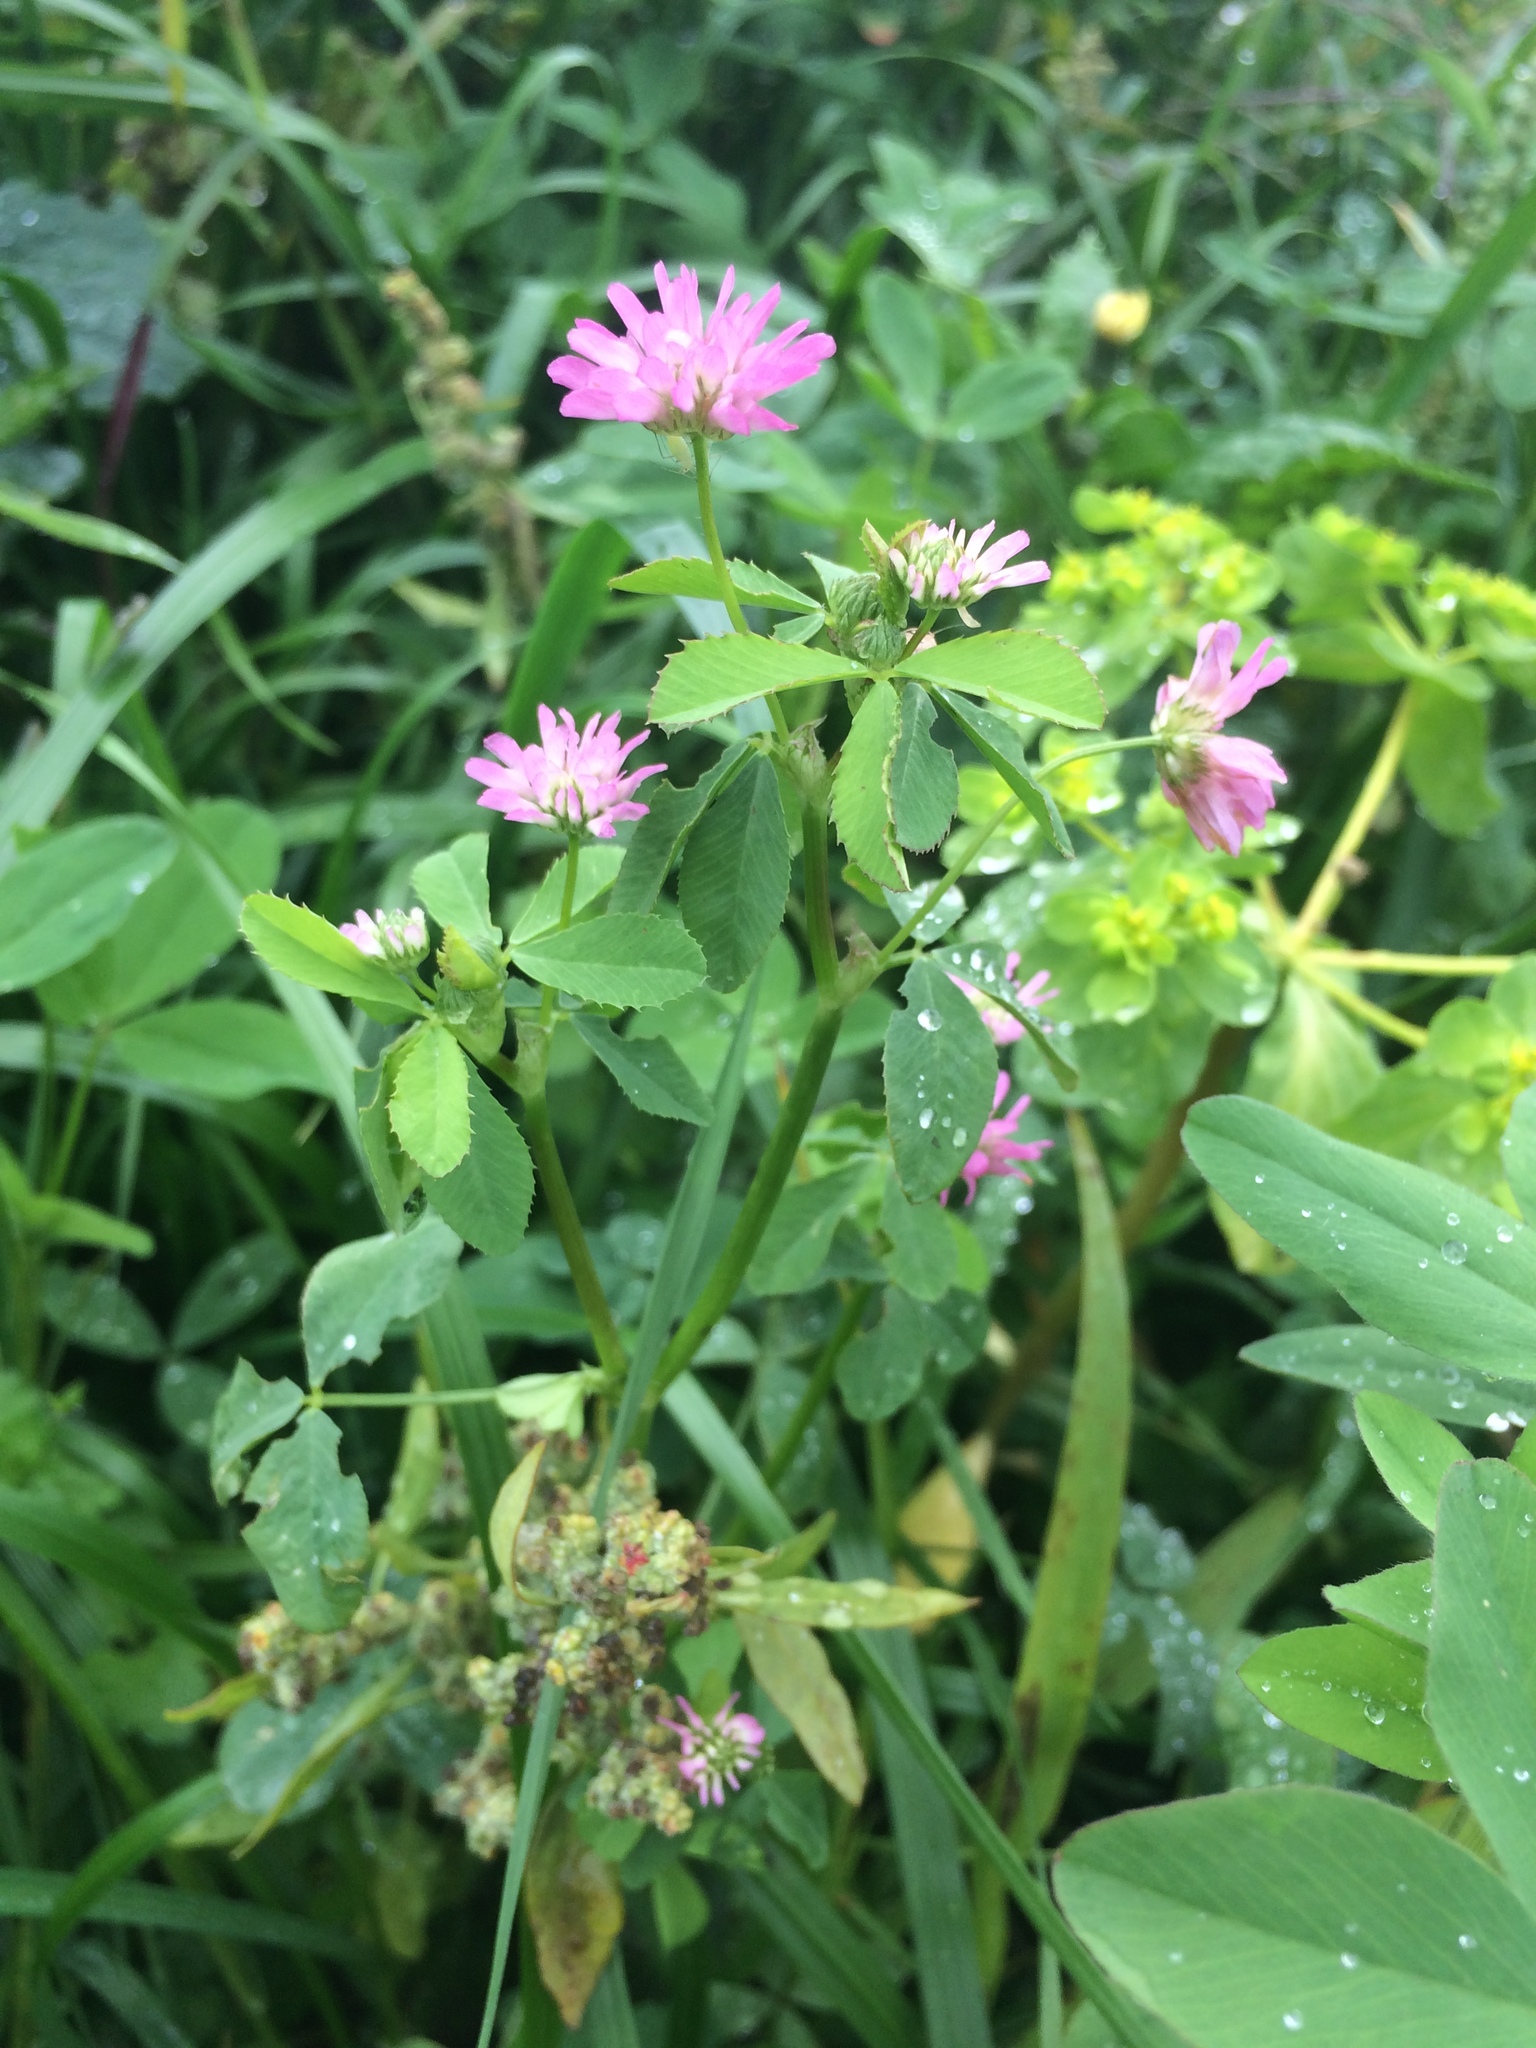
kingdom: Plantae
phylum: Tracheophyta
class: Magnoliopsida
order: Fabales
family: Fabaceae
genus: Trifolium
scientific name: Trifolium resupinatum
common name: Reversed clover
